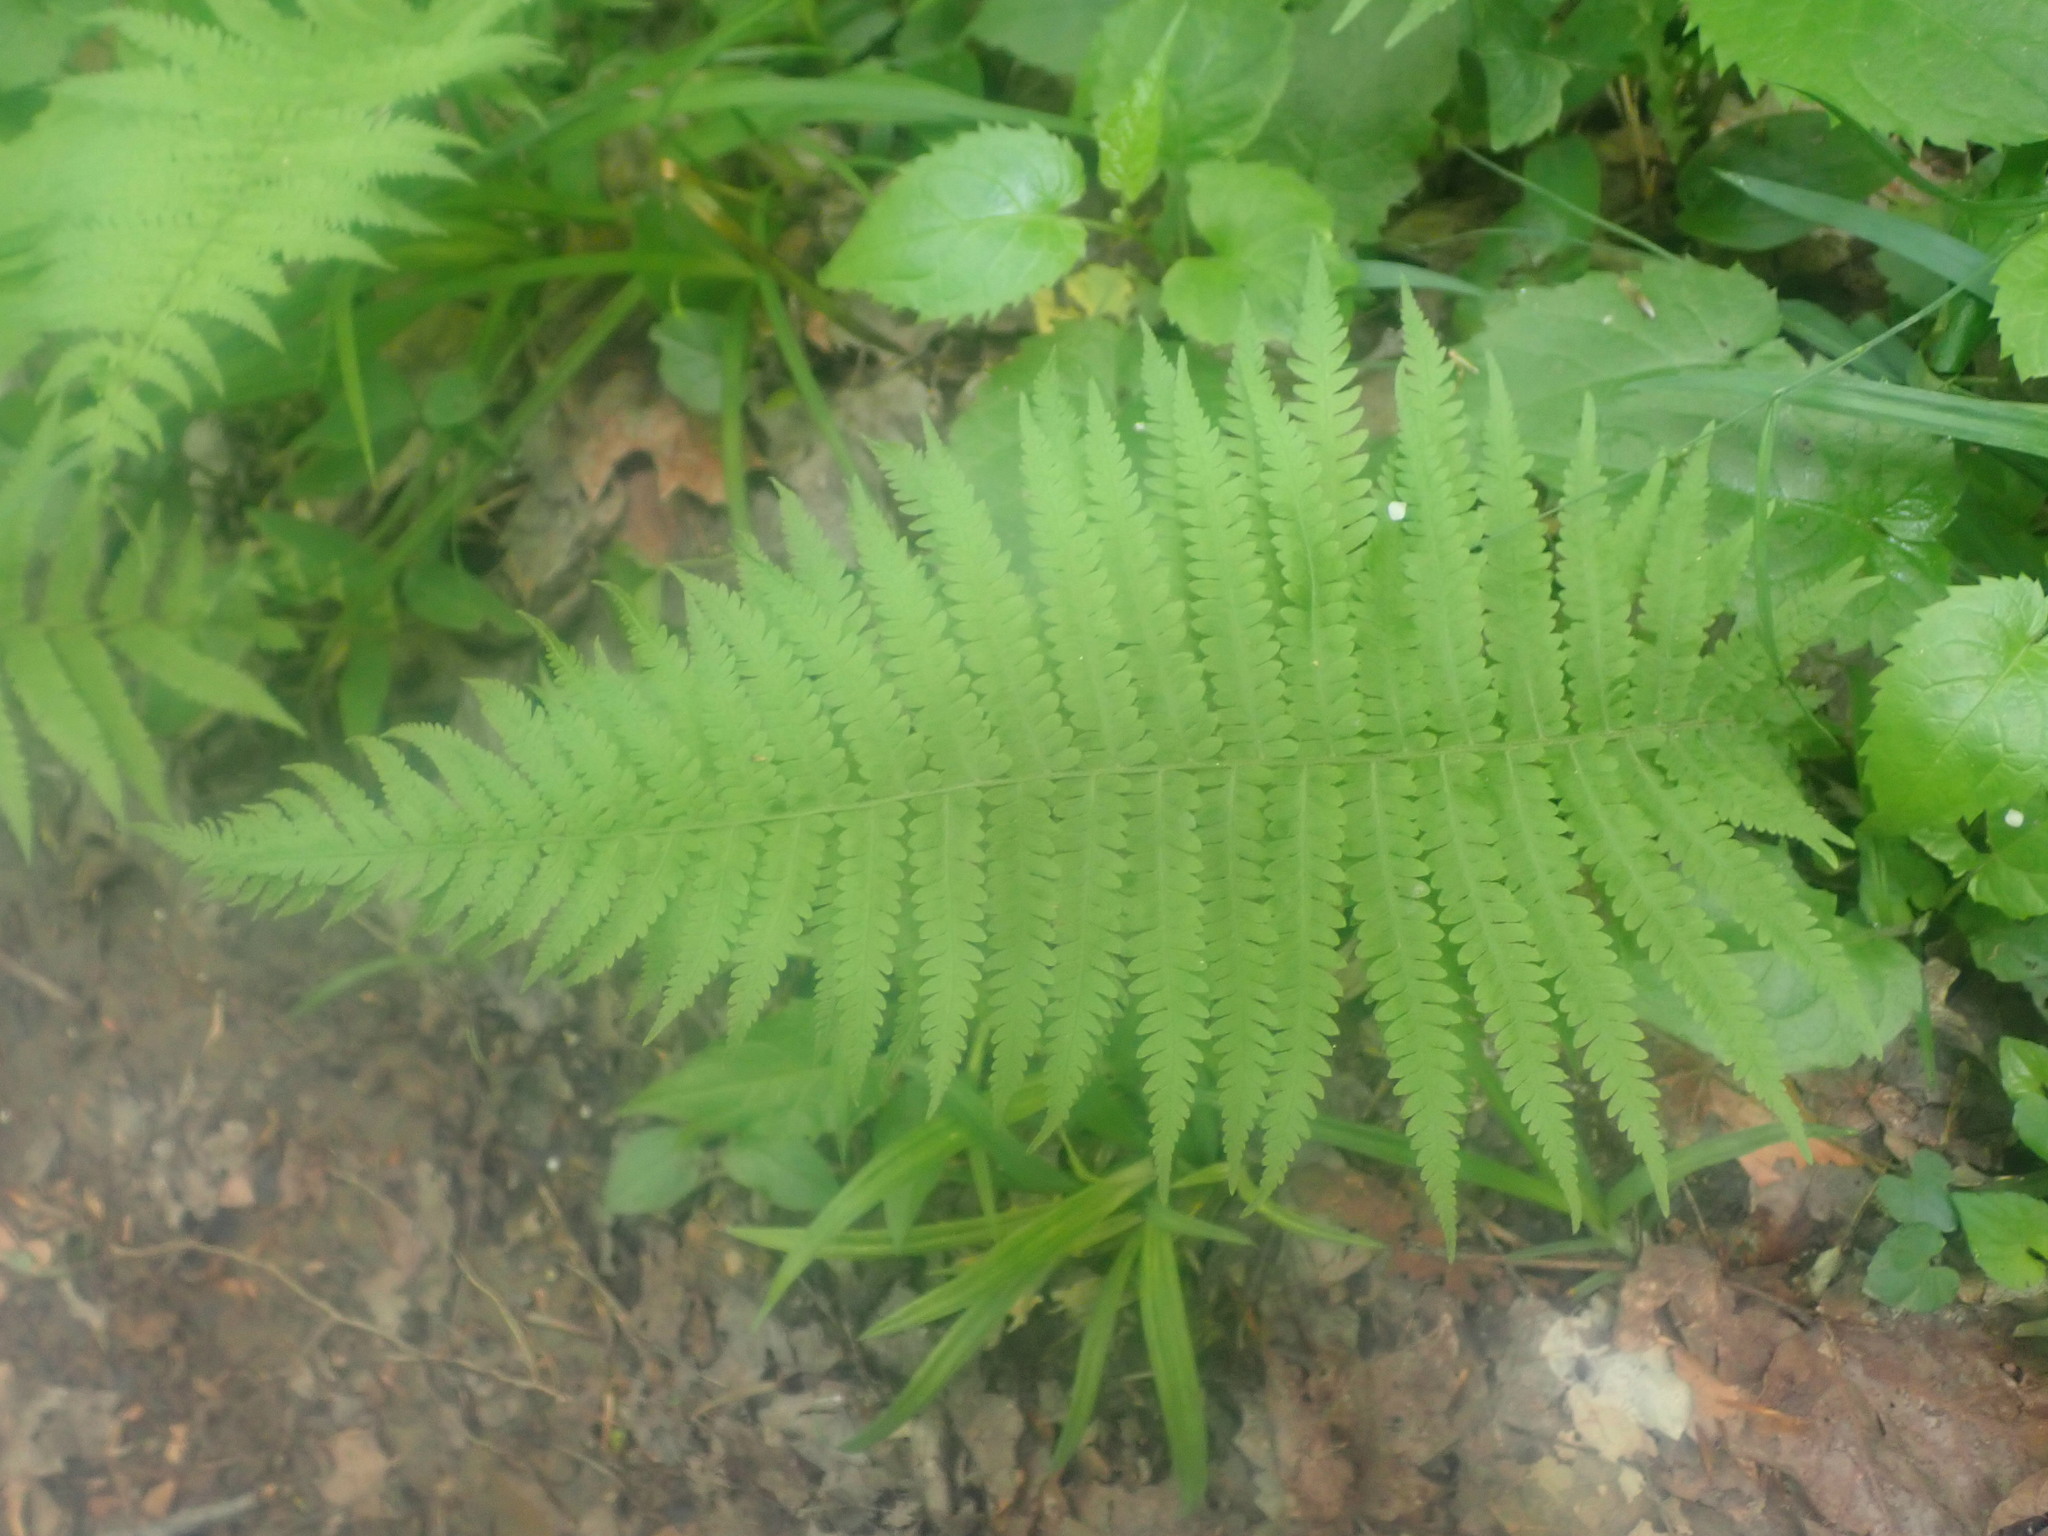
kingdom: Plantae
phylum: Tracheophyta
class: Polypodiopsida
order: Polypodiales
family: Thelypteridaceae
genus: Amauropelta
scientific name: Amauropelta noveboracensis
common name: New york fern
